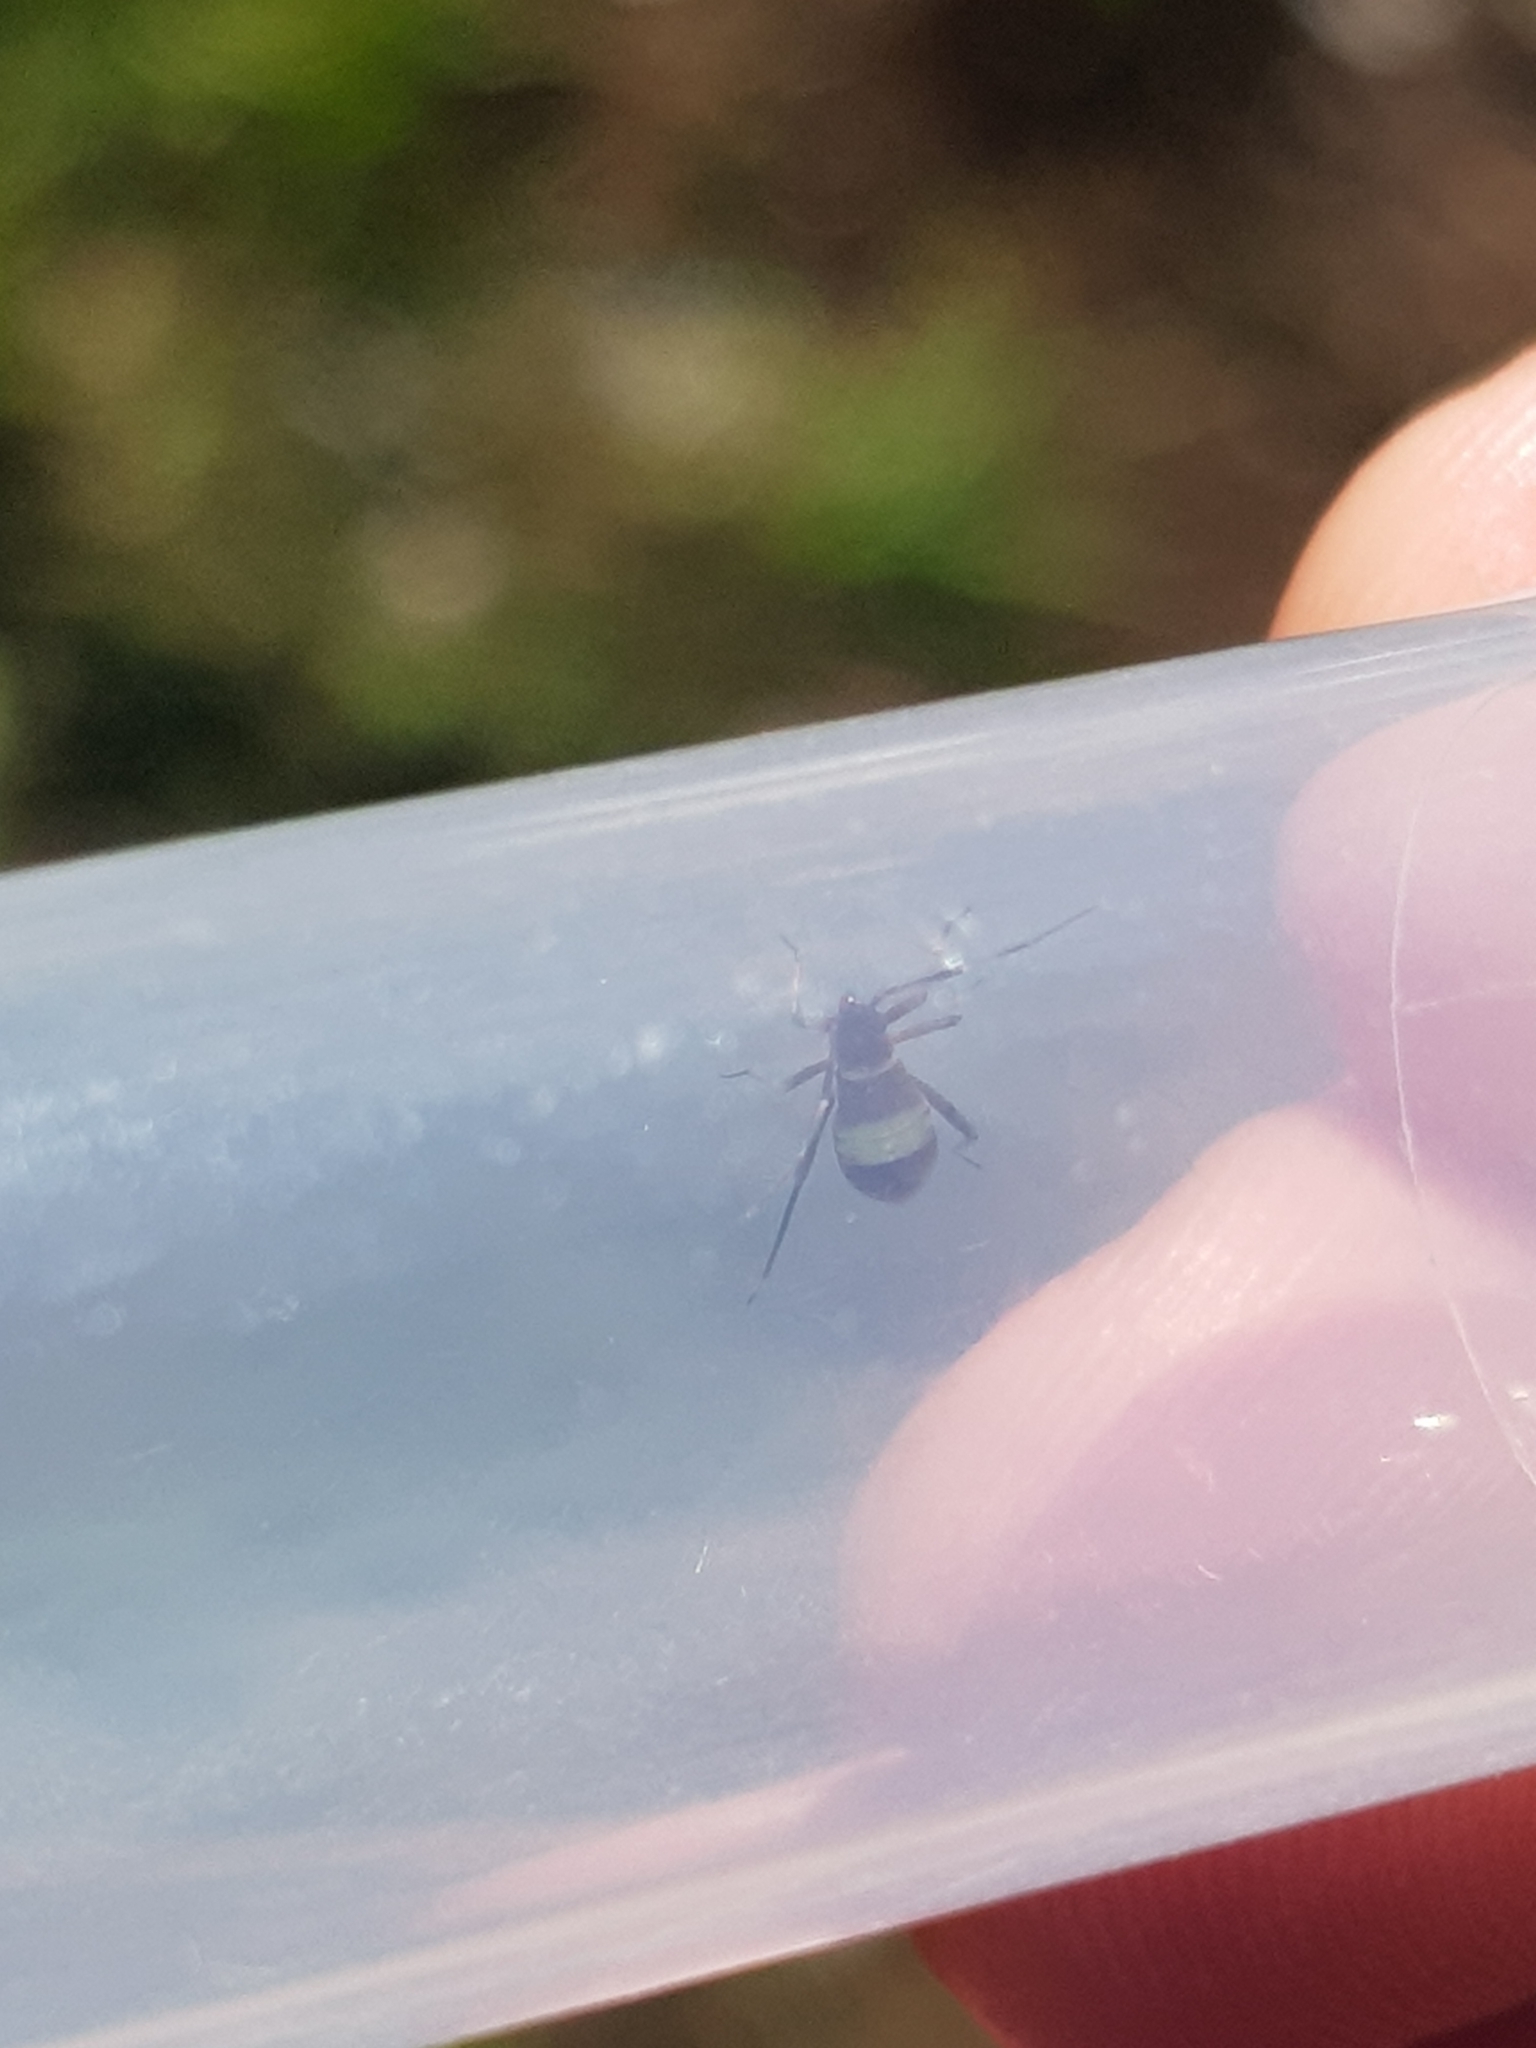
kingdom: Animalia
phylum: Arthropoda
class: Insecta
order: Hemiptera
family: Miridae
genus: Closterotomus
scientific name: Closterotomus biclavatus
